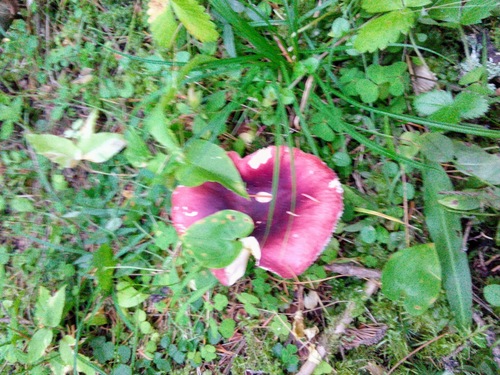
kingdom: Fungi
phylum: Basidiomycota
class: Agaricomycetes
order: Russulales
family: Russulaceae
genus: Russula
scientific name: Russula sanguinea
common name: Bloody brittlegill
